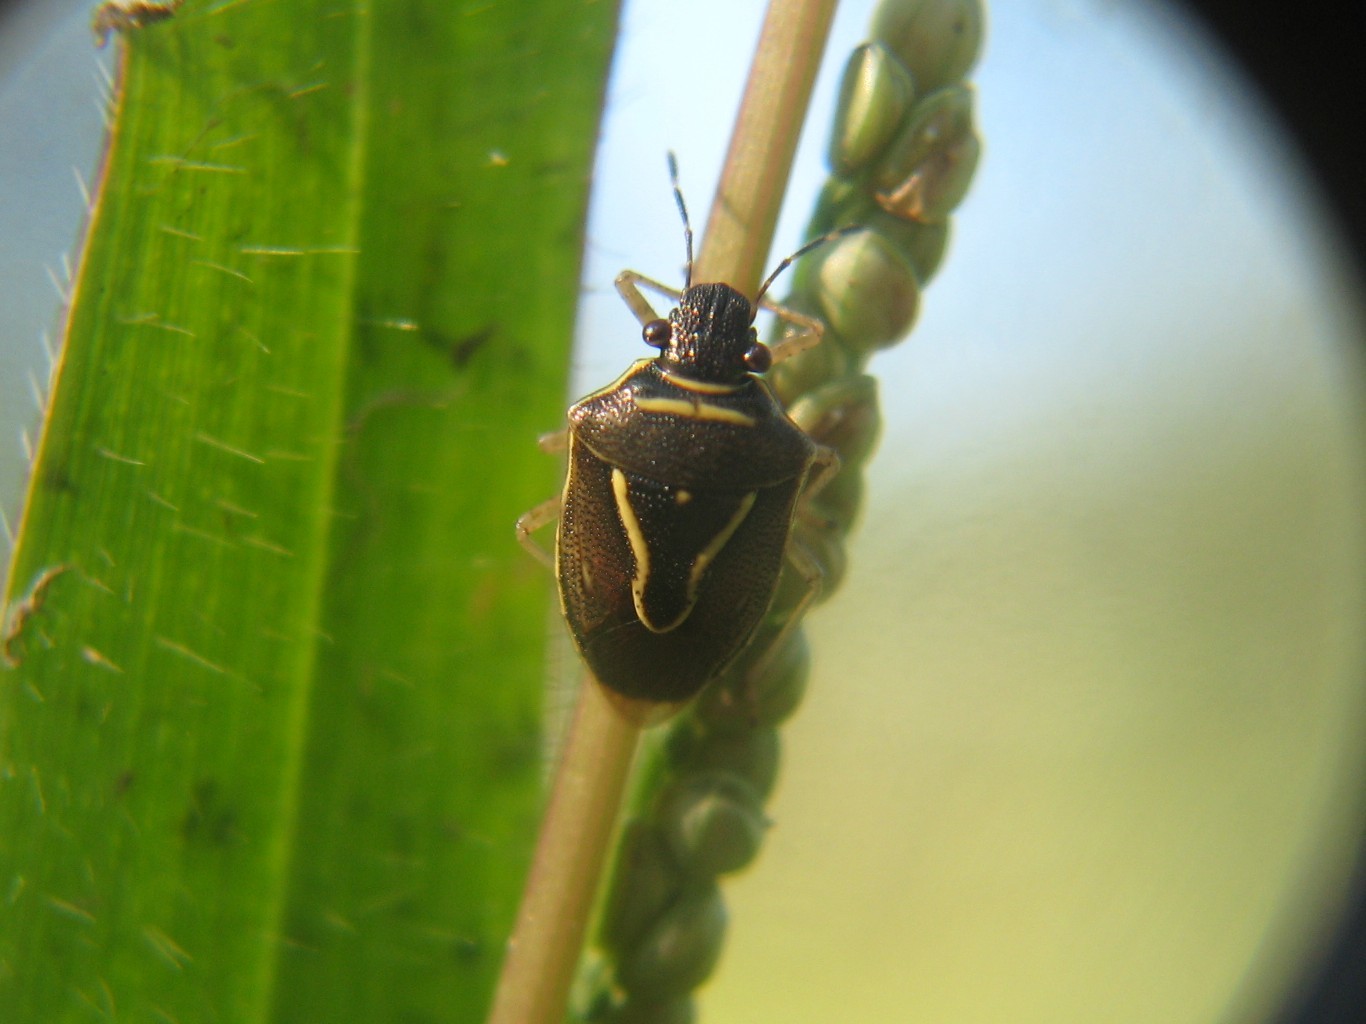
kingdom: Animalia
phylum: Arthropoda
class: Insecta
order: Hemiptera
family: Pentatomidae
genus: Mormidea
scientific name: Mormidea lugens
